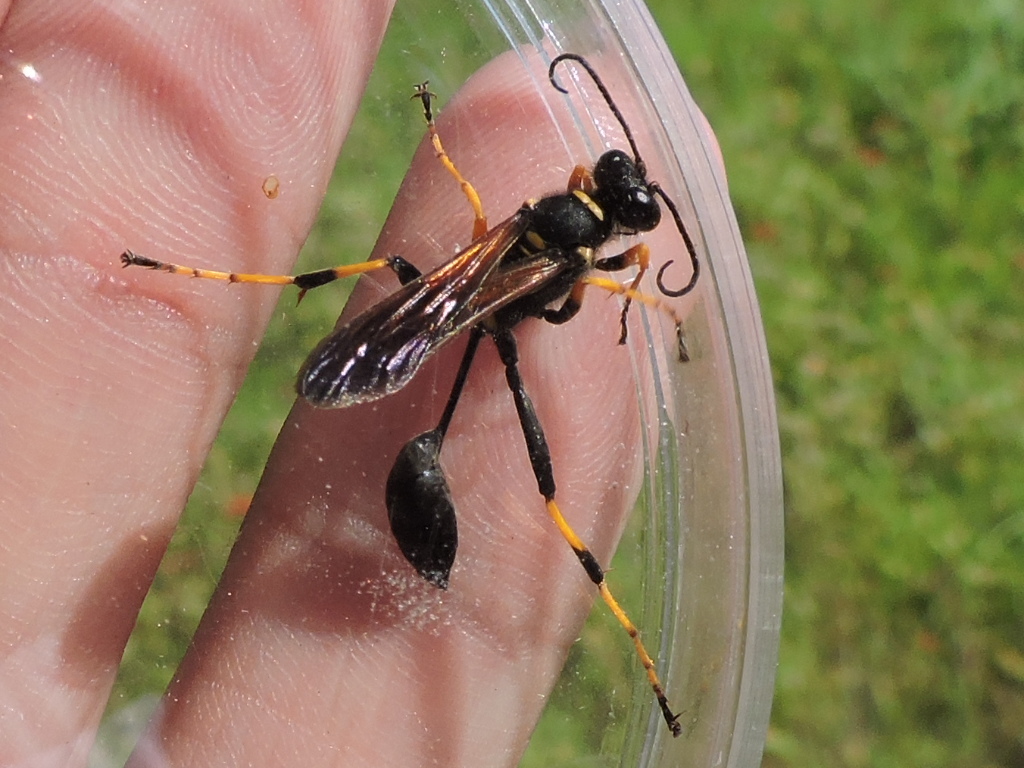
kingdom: Animalia
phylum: Arthropoda
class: Insecta
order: Hymenoptera
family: Sphecidae
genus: Sceliphron
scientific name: Sceliphron caementarium
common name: Mud dauber
